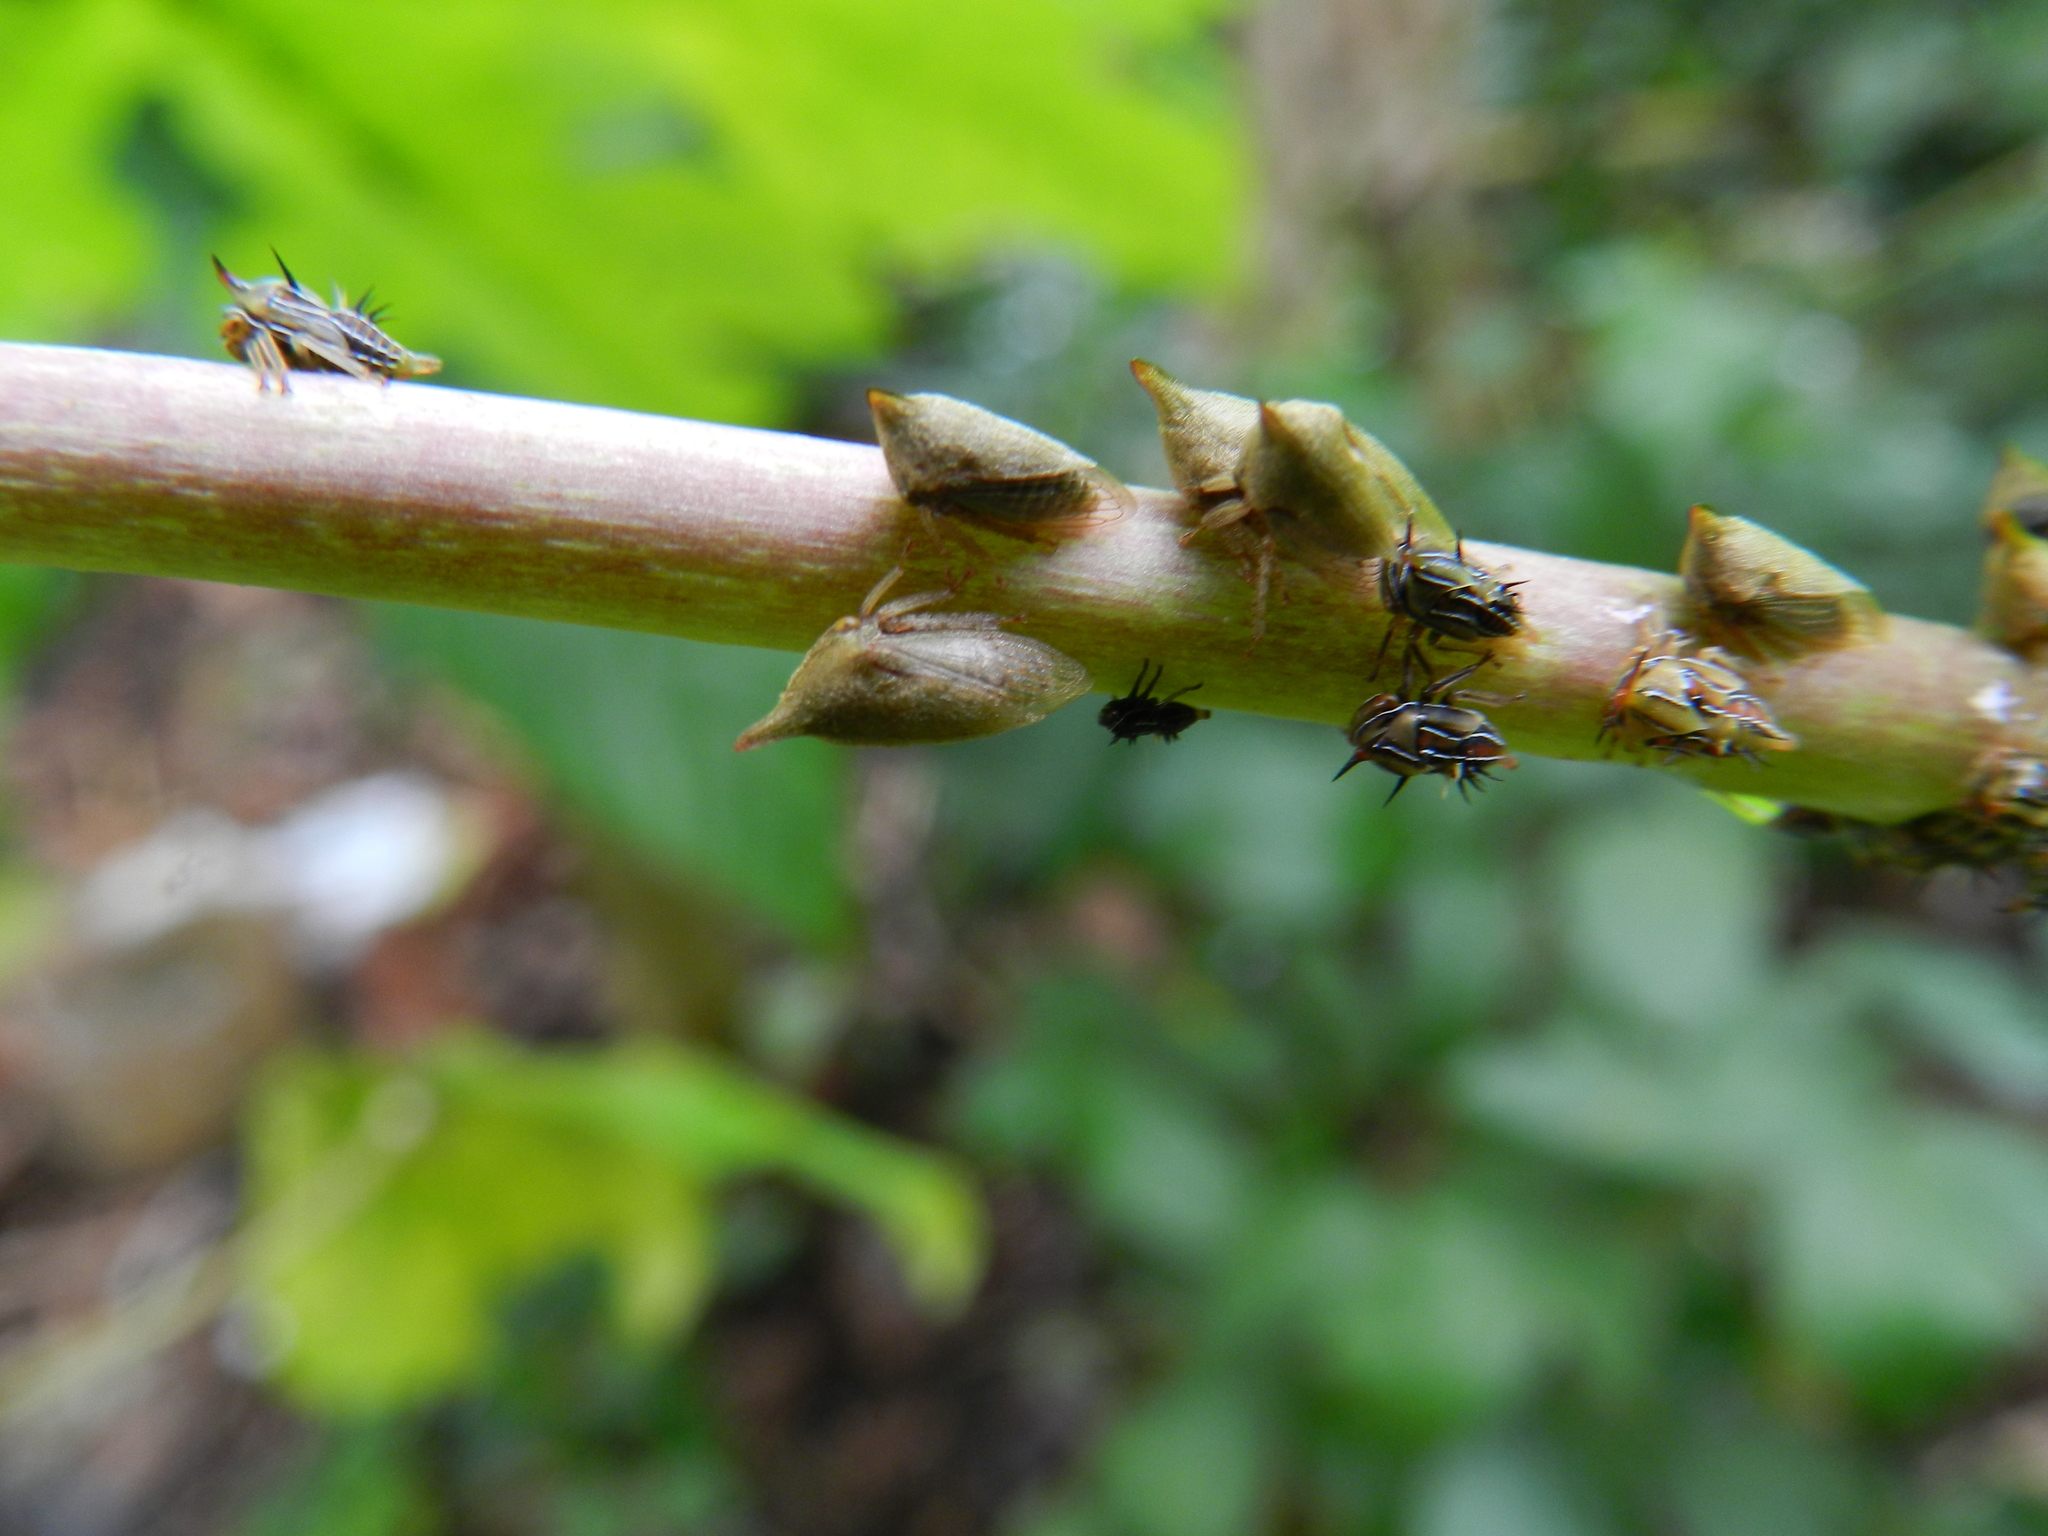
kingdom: Animalia
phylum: Arthropoda
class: Insecta
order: Hemiptera
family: Membracidae
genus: Aconophora
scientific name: Aconophora laminata
